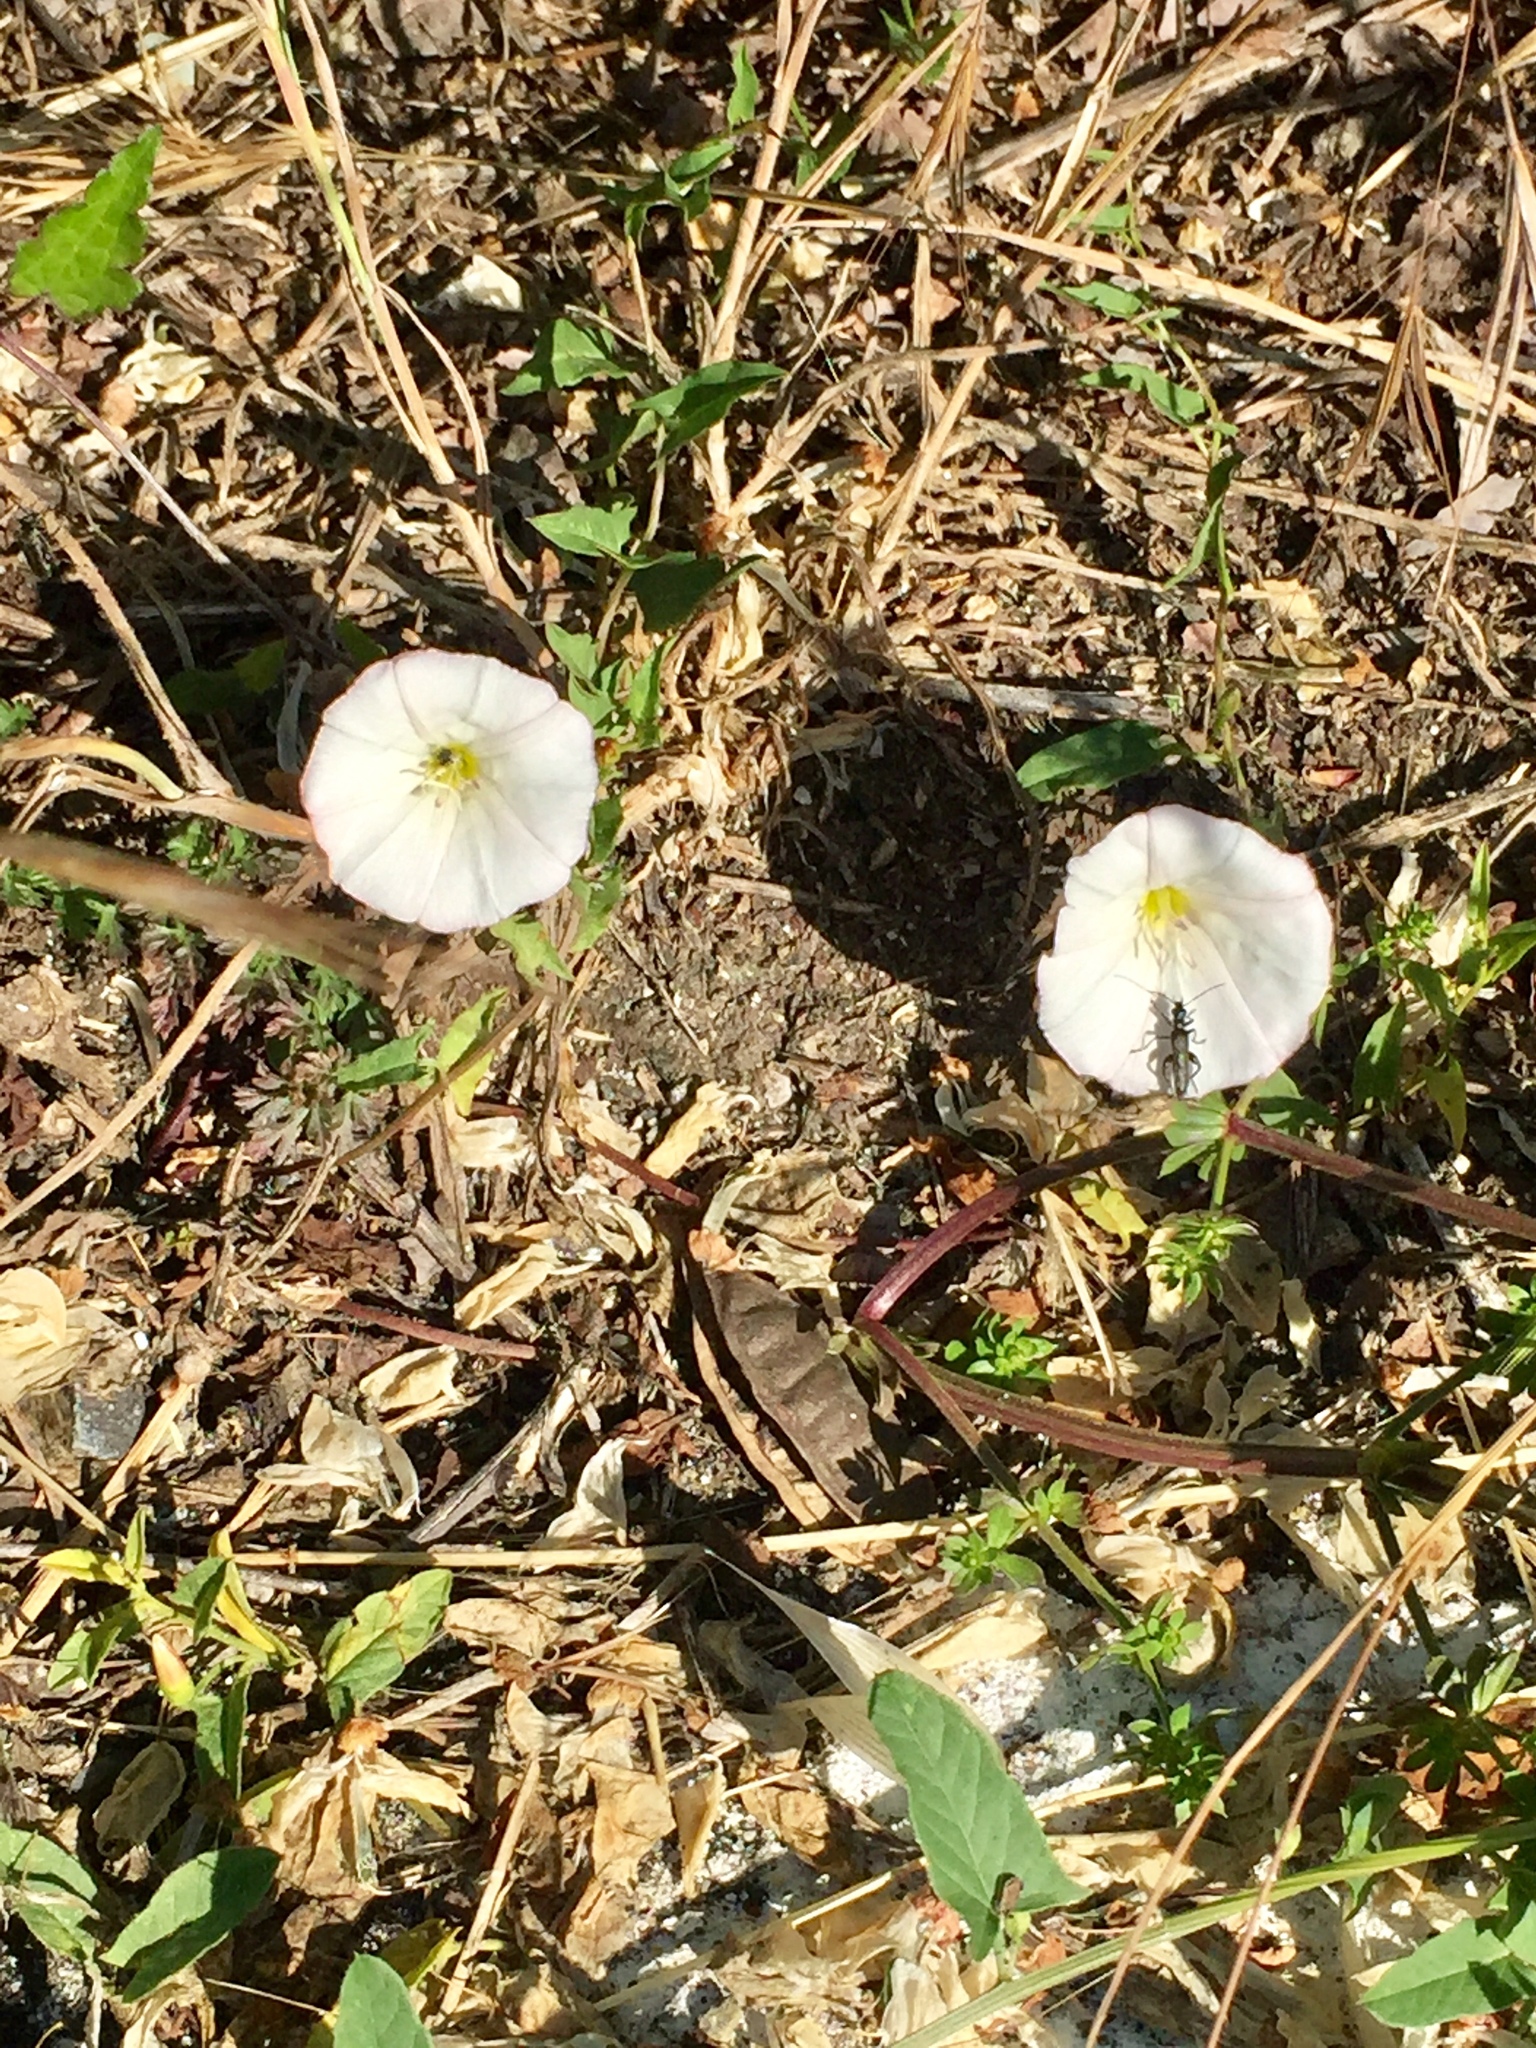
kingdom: Plantae
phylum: Tracheophyta
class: Magnoliopsida
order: Solanales
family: Convolvulaceae
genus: Convolvulus
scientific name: Convolvulus arvensis
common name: Field bindweed
